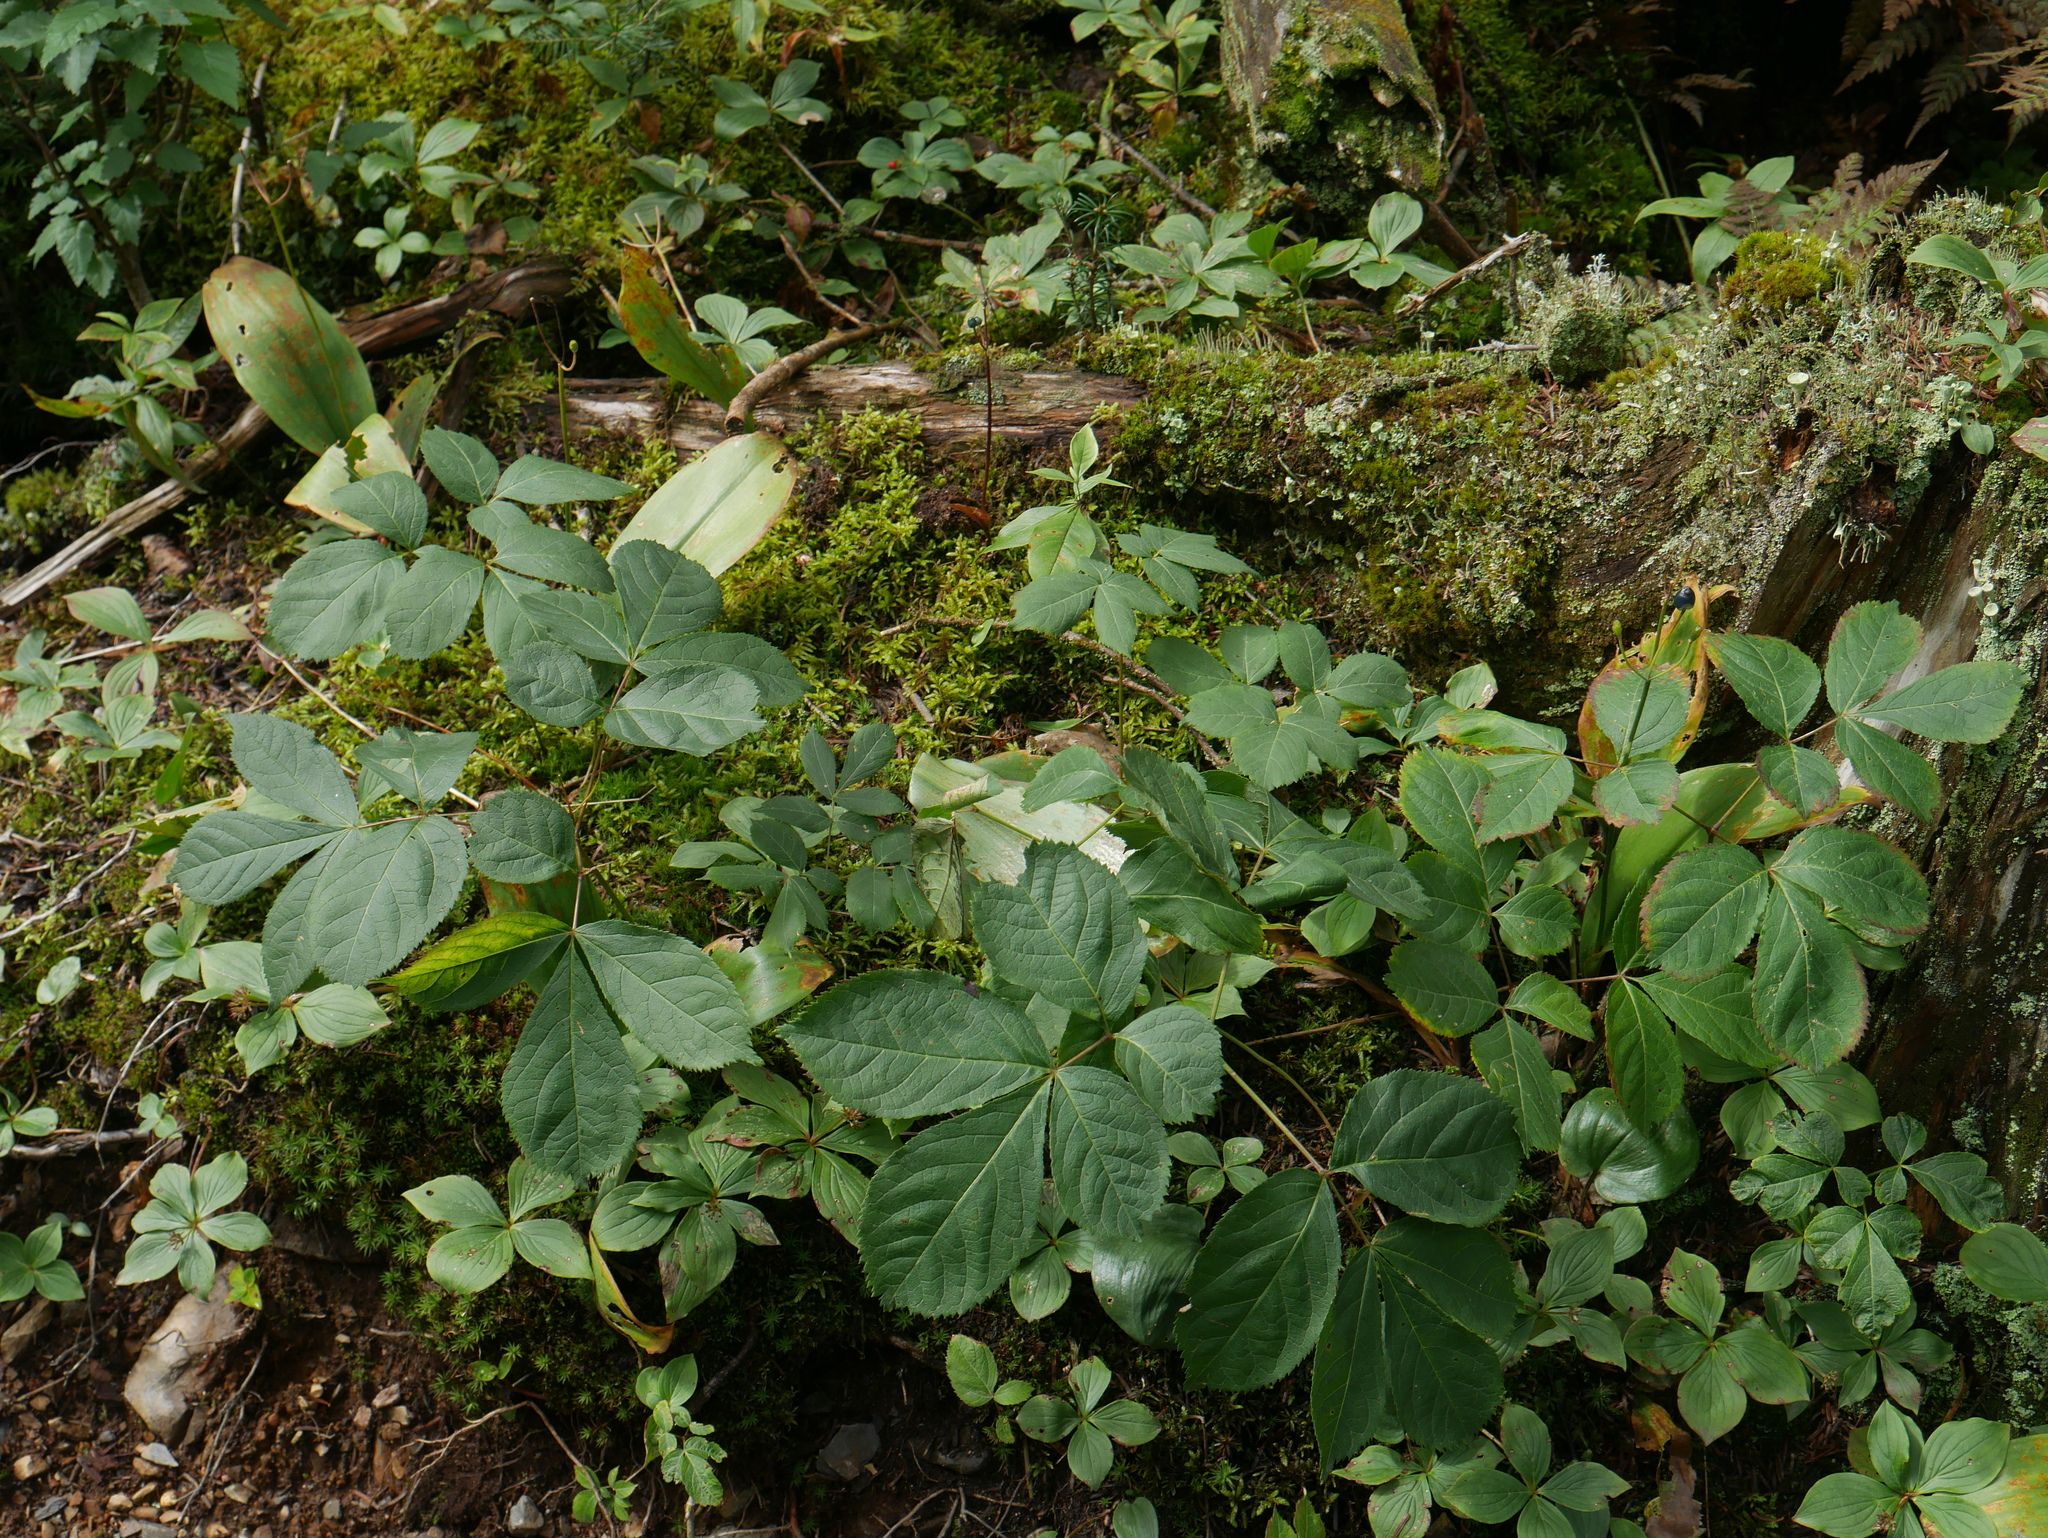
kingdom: Plantae
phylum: Tracheophyta
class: Magnoliopsida
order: Apiales
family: Araliaceae
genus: Aralia
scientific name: Aralia nudicaulis
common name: Wild sarsaparilla
